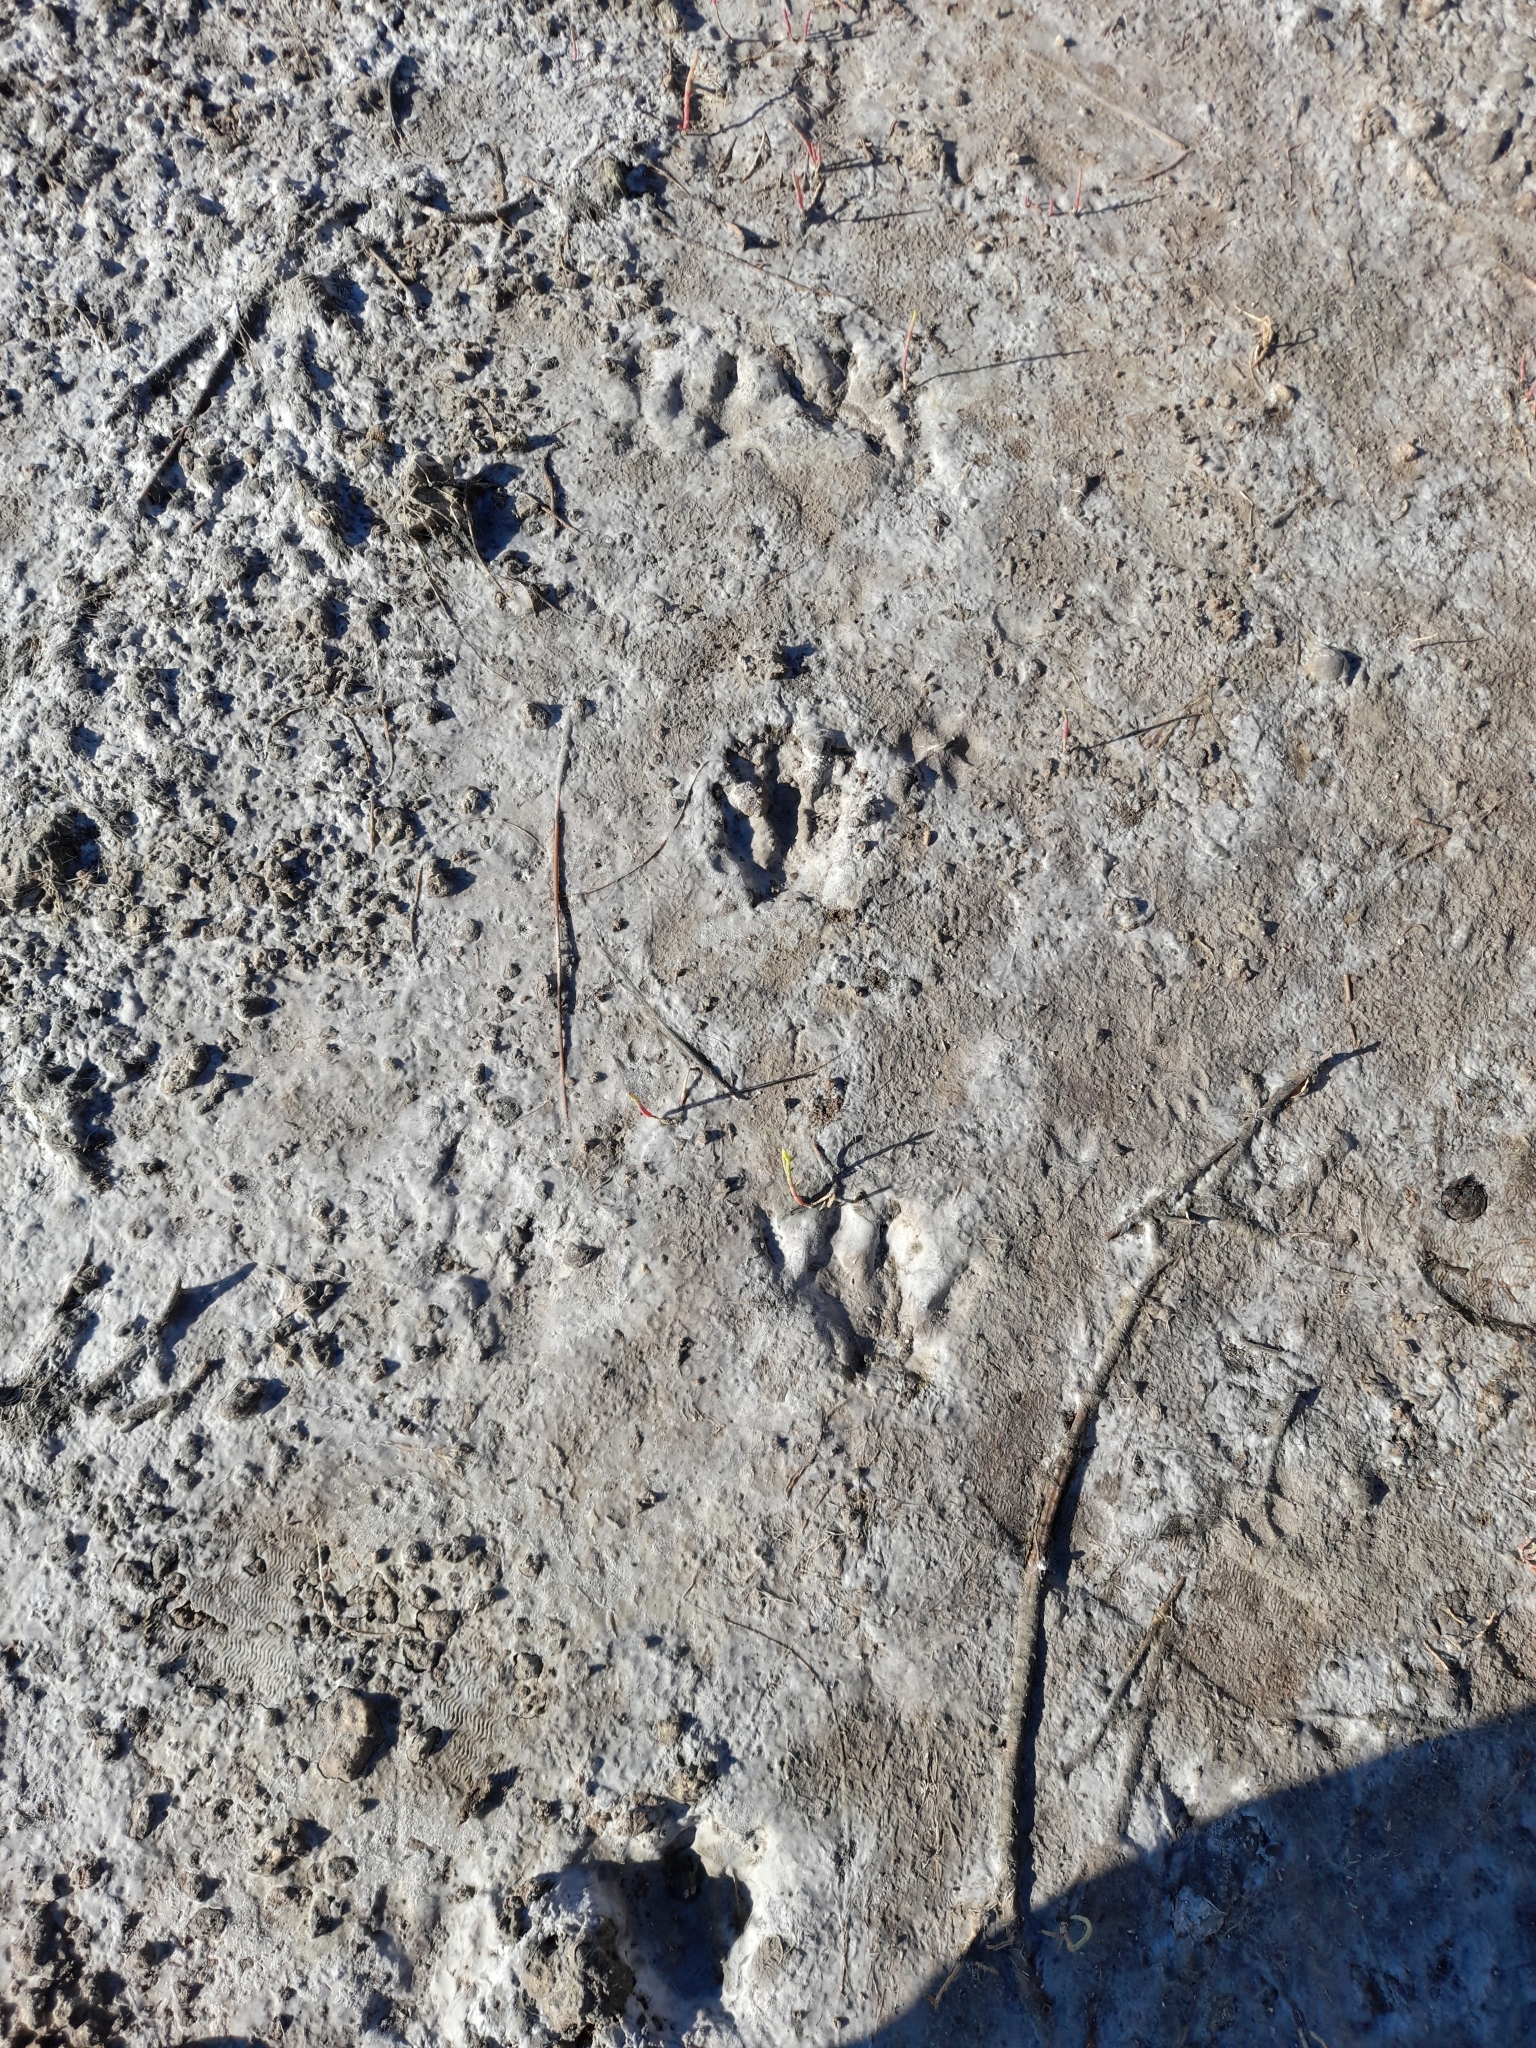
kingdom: Animalia
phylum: Chordata
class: Mammalia
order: Rodentia
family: Caviidae
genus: Hydrochoerus
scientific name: Hydrochoerus hydrochaeris
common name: Capybara
